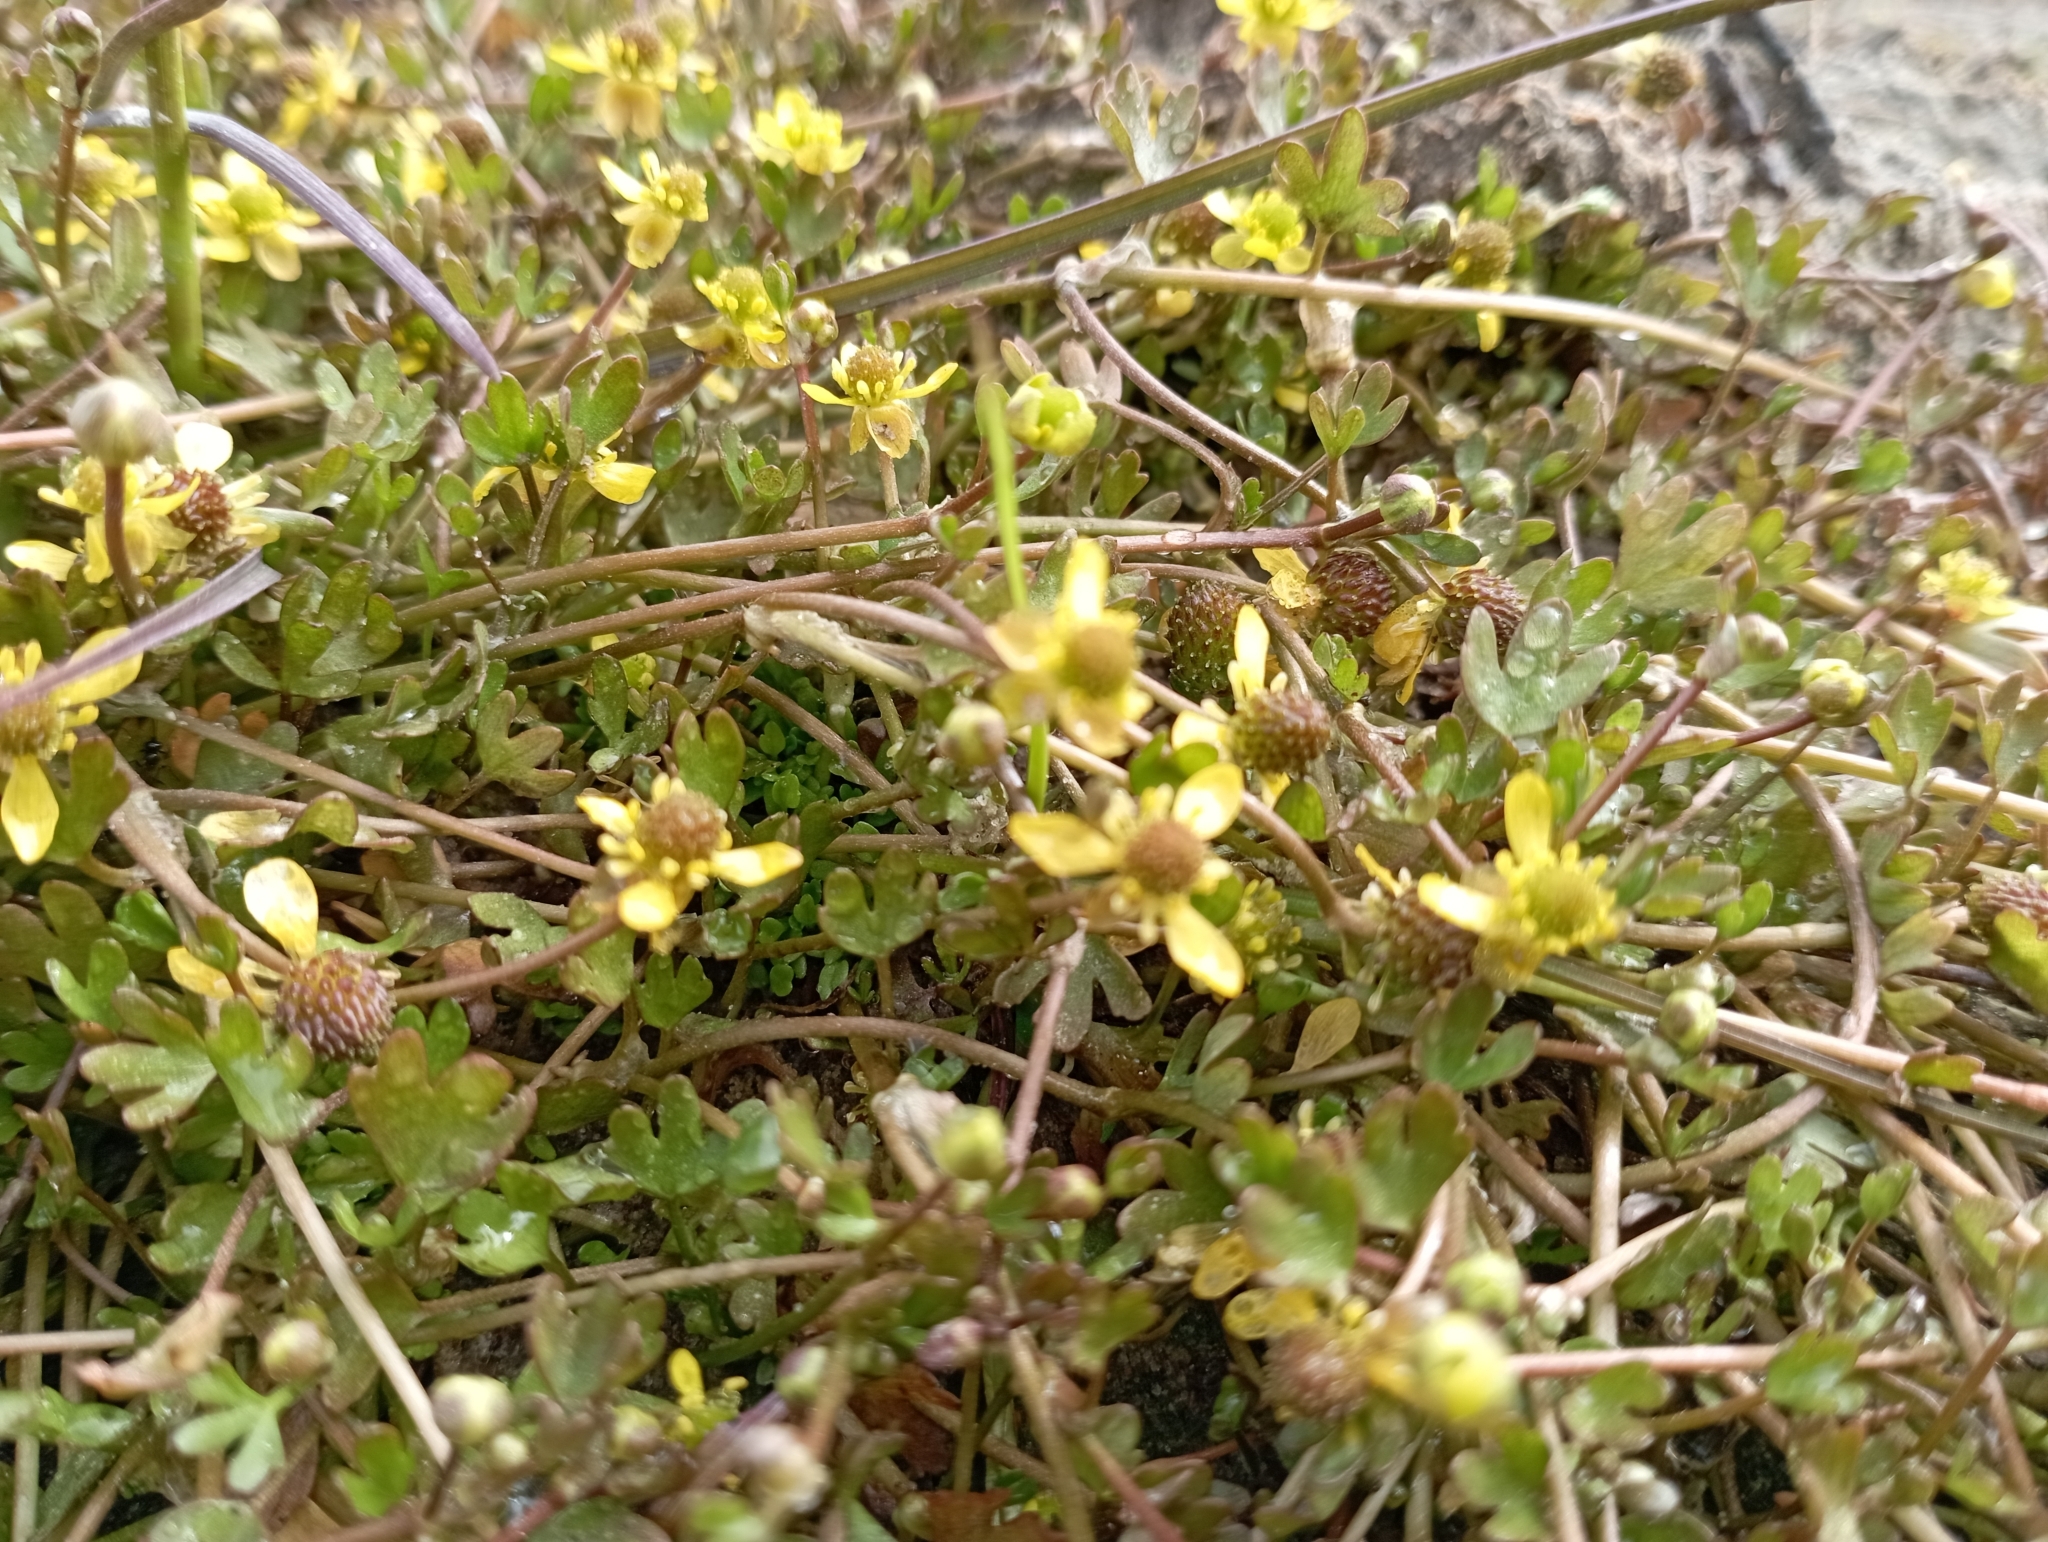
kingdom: Plantae
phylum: Tracheophyta
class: Magnoliopsida
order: Ranunculales
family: Ranunculaceae
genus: Ranunculus
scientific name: Ranunculus hyperboreus
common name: Arctic buttercup
